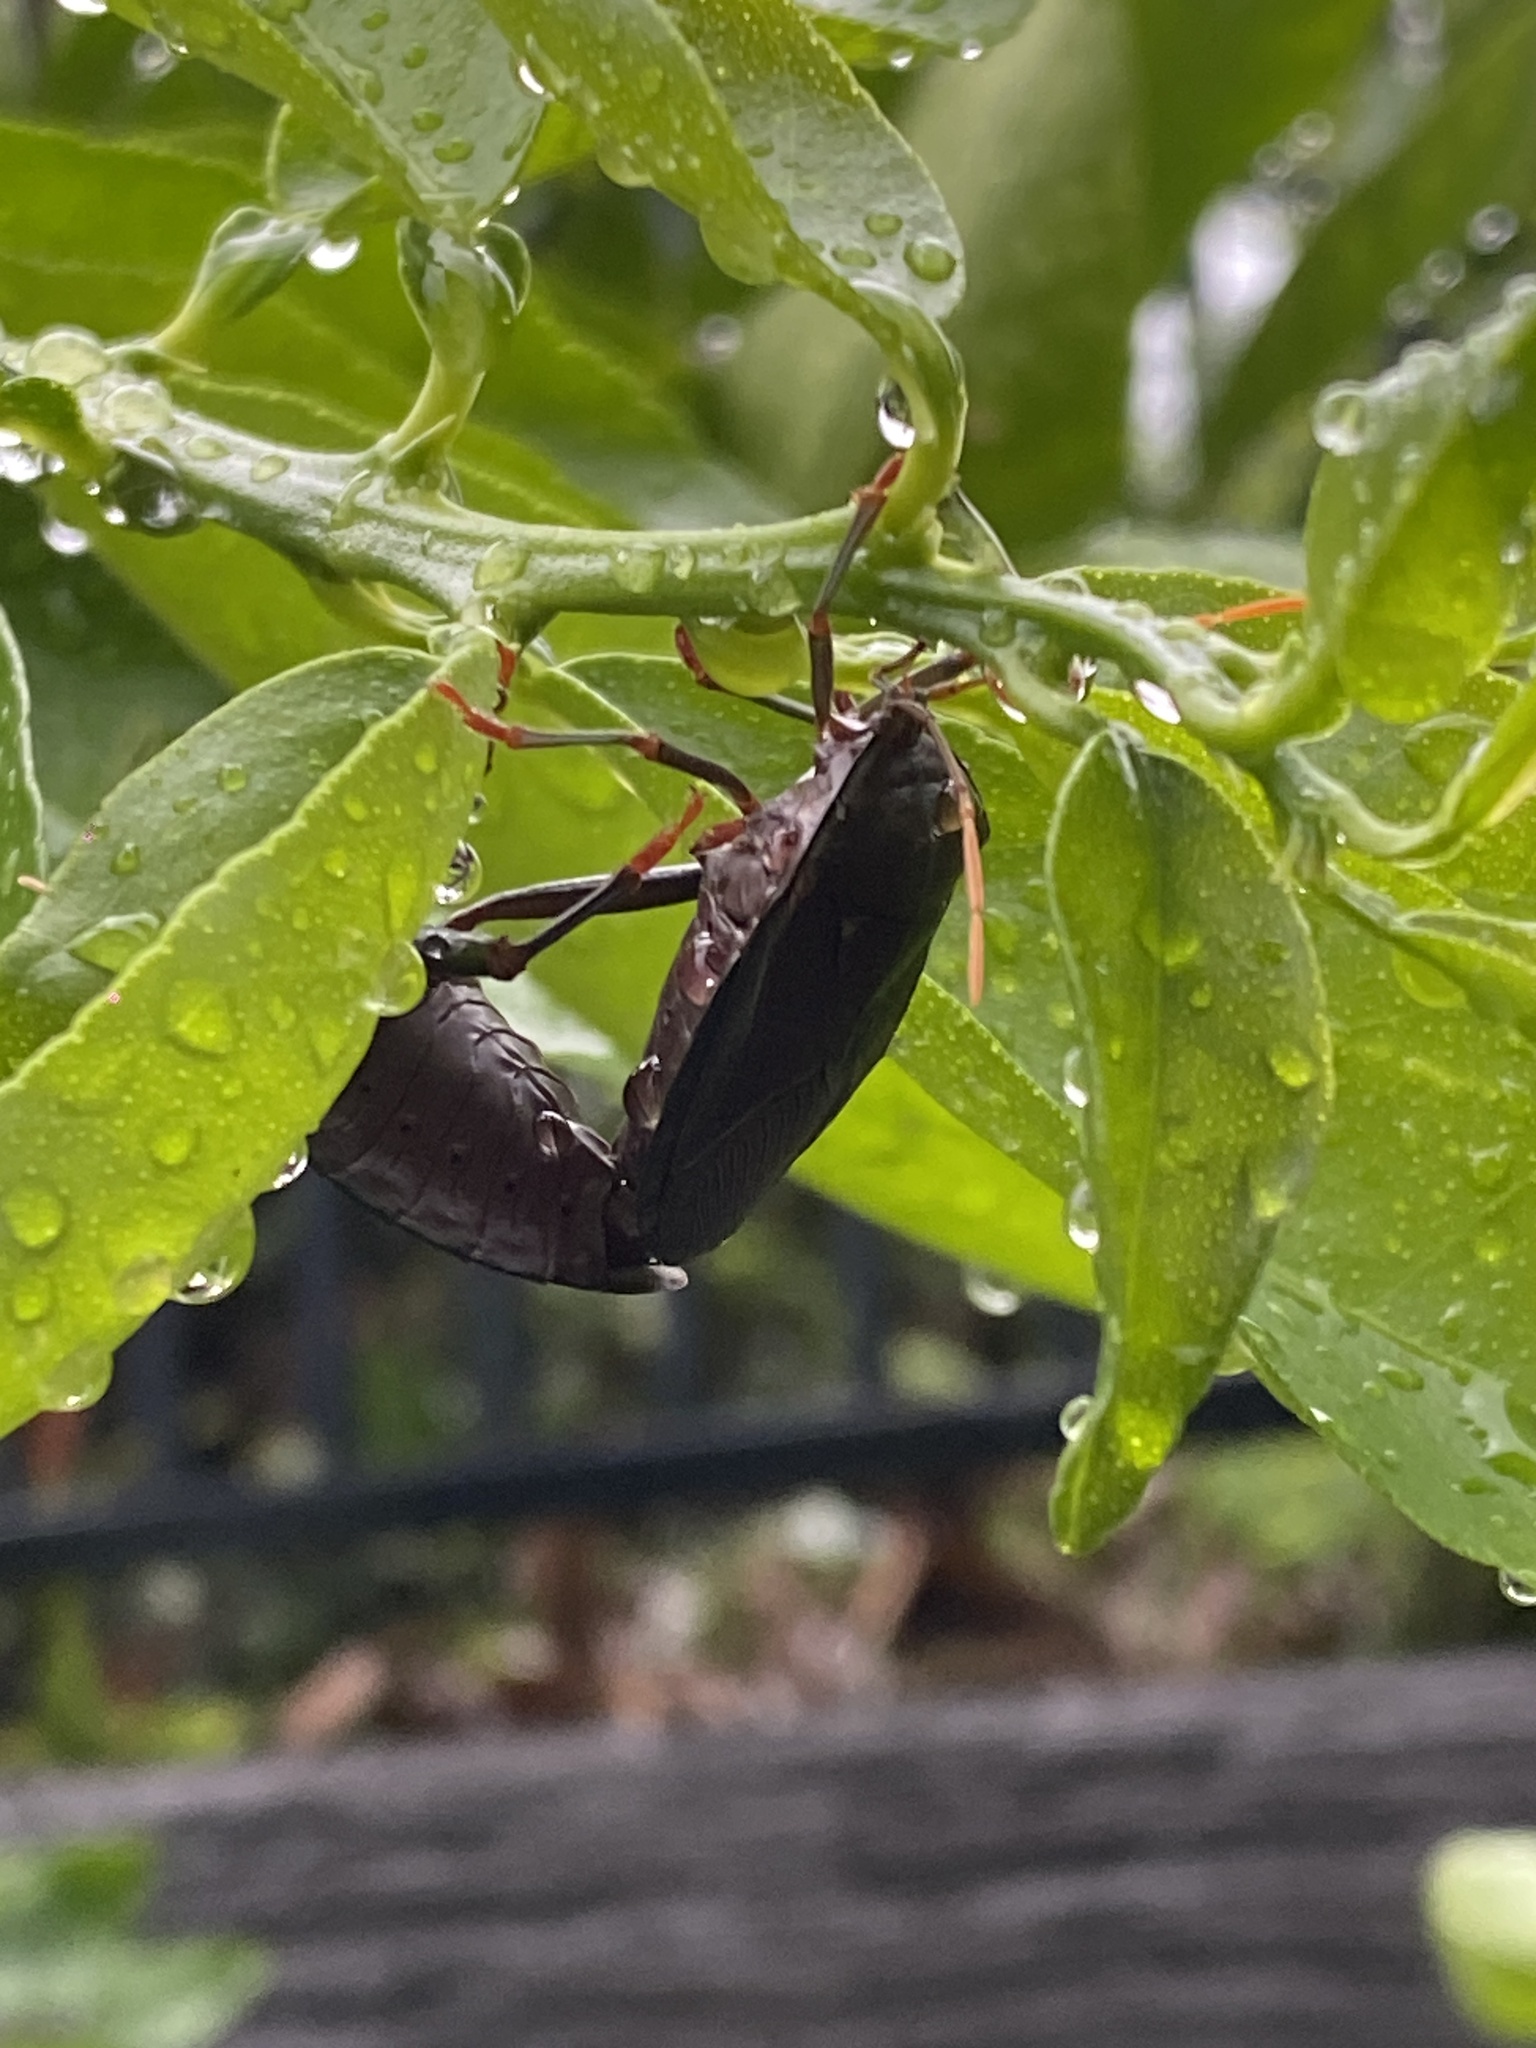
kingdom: Animalia
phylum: Arthropoda
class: Insecta
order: Hemiptera
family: Tessaratomidae
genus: Musgraveia
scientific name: Musgraveia sulciventris
